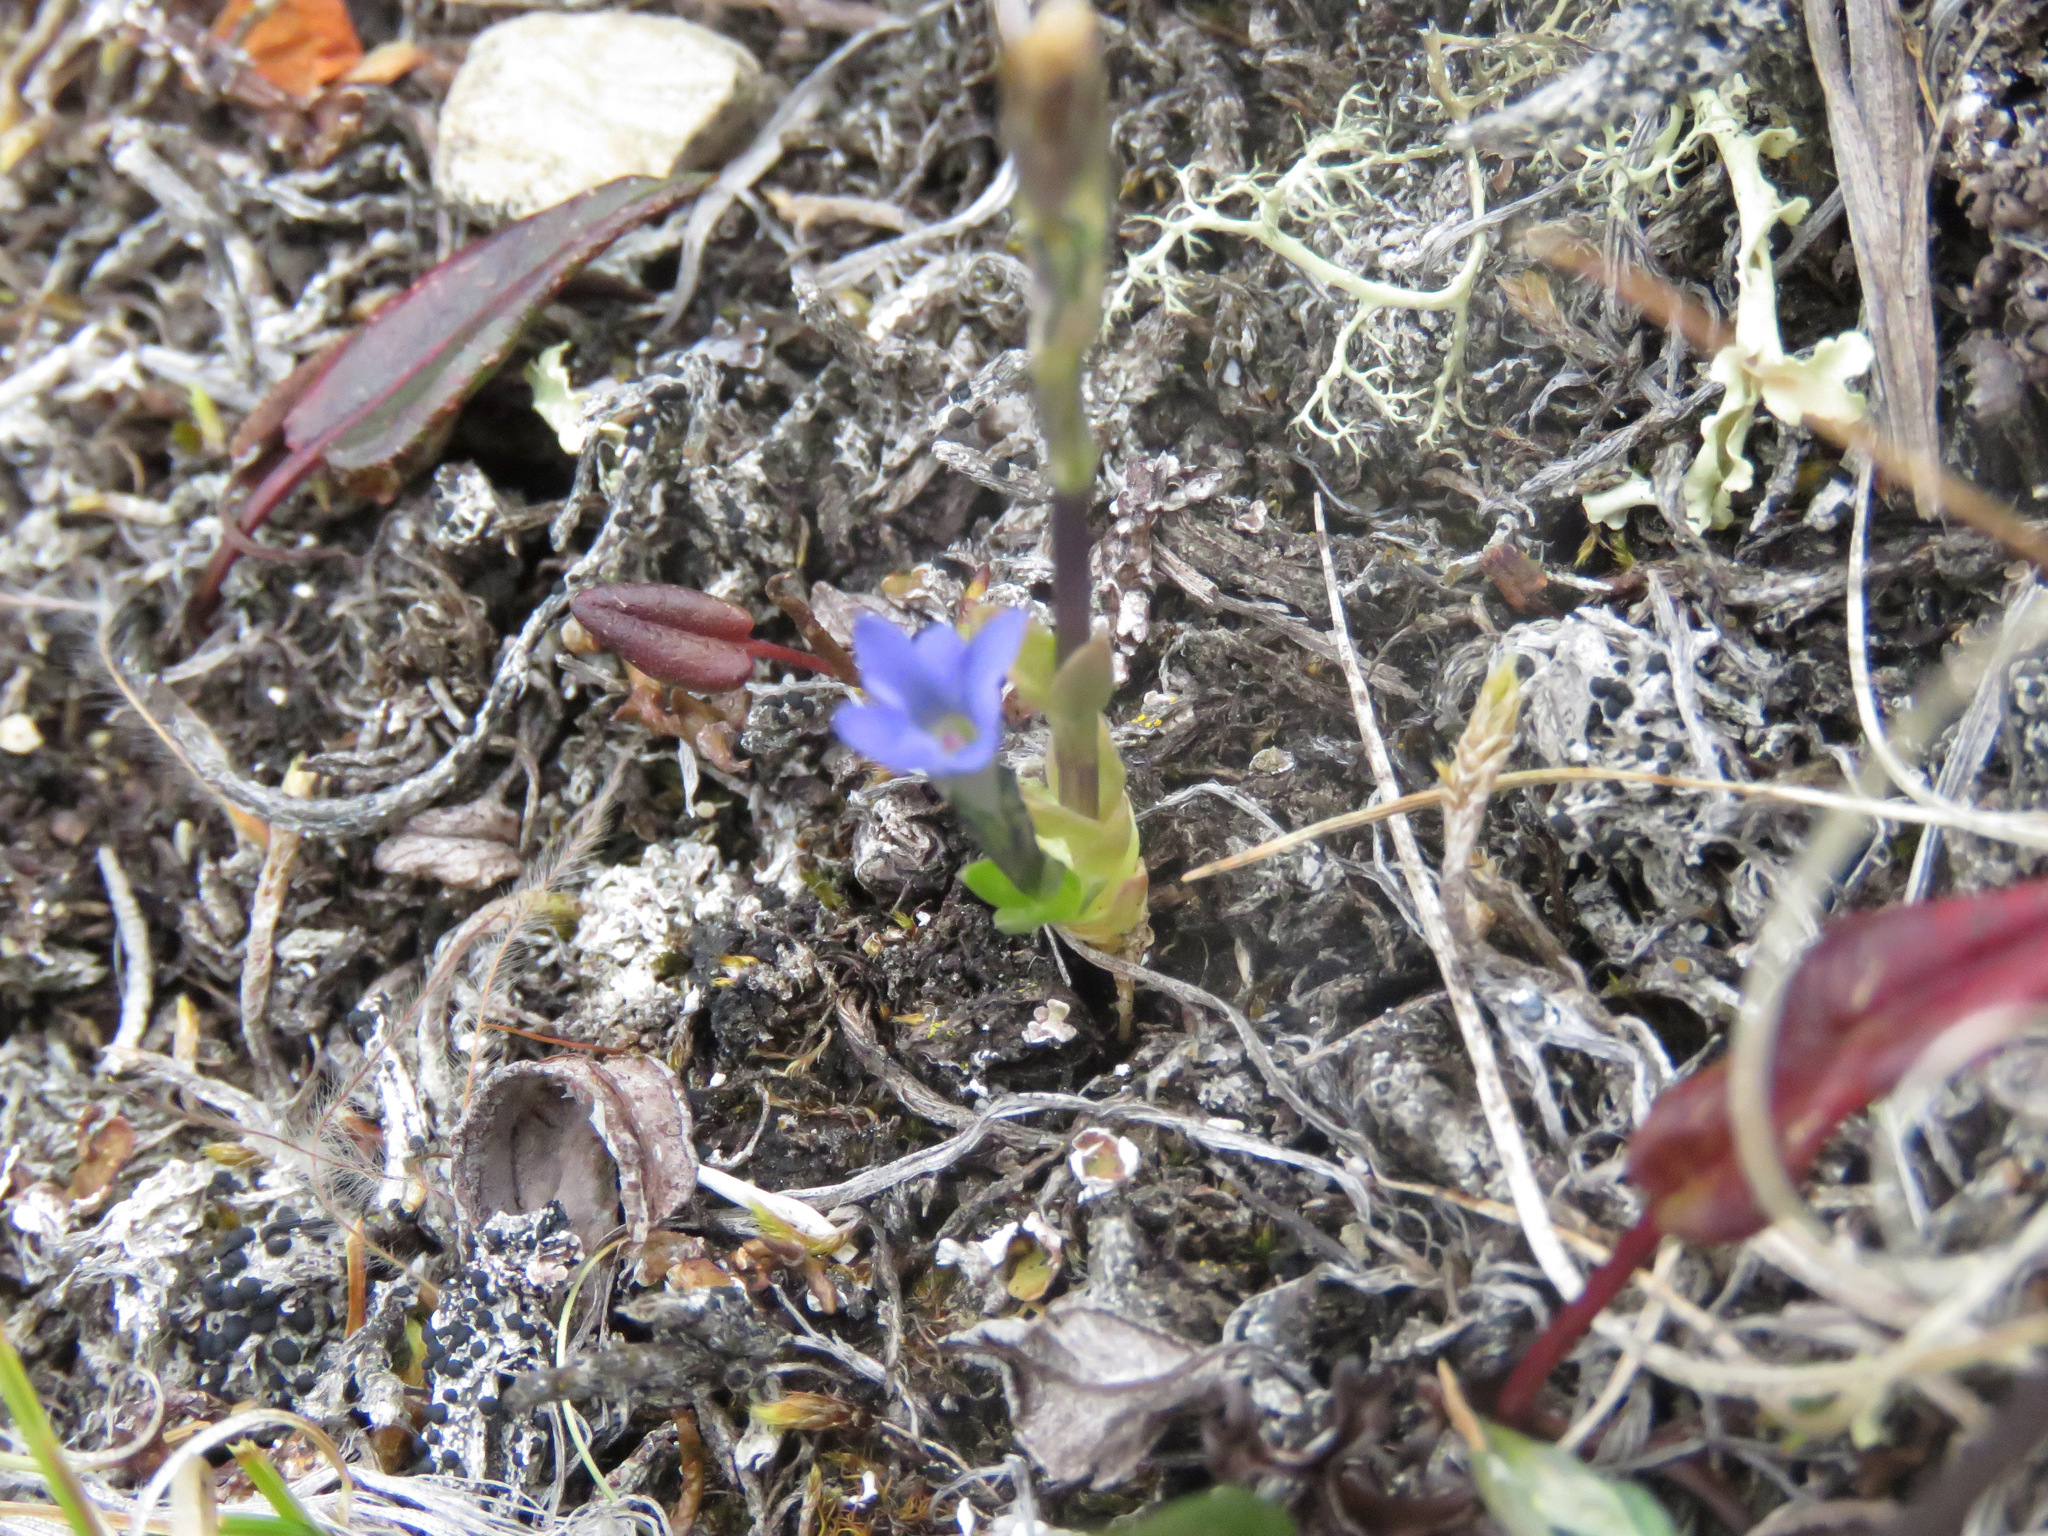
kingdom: Plantae
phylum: Tracheophyta
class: Magnoliopsida
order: Gentianales
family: Gentianaceae
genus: Gentiana
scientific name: Gentiana prostrata
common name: Moss gentian
